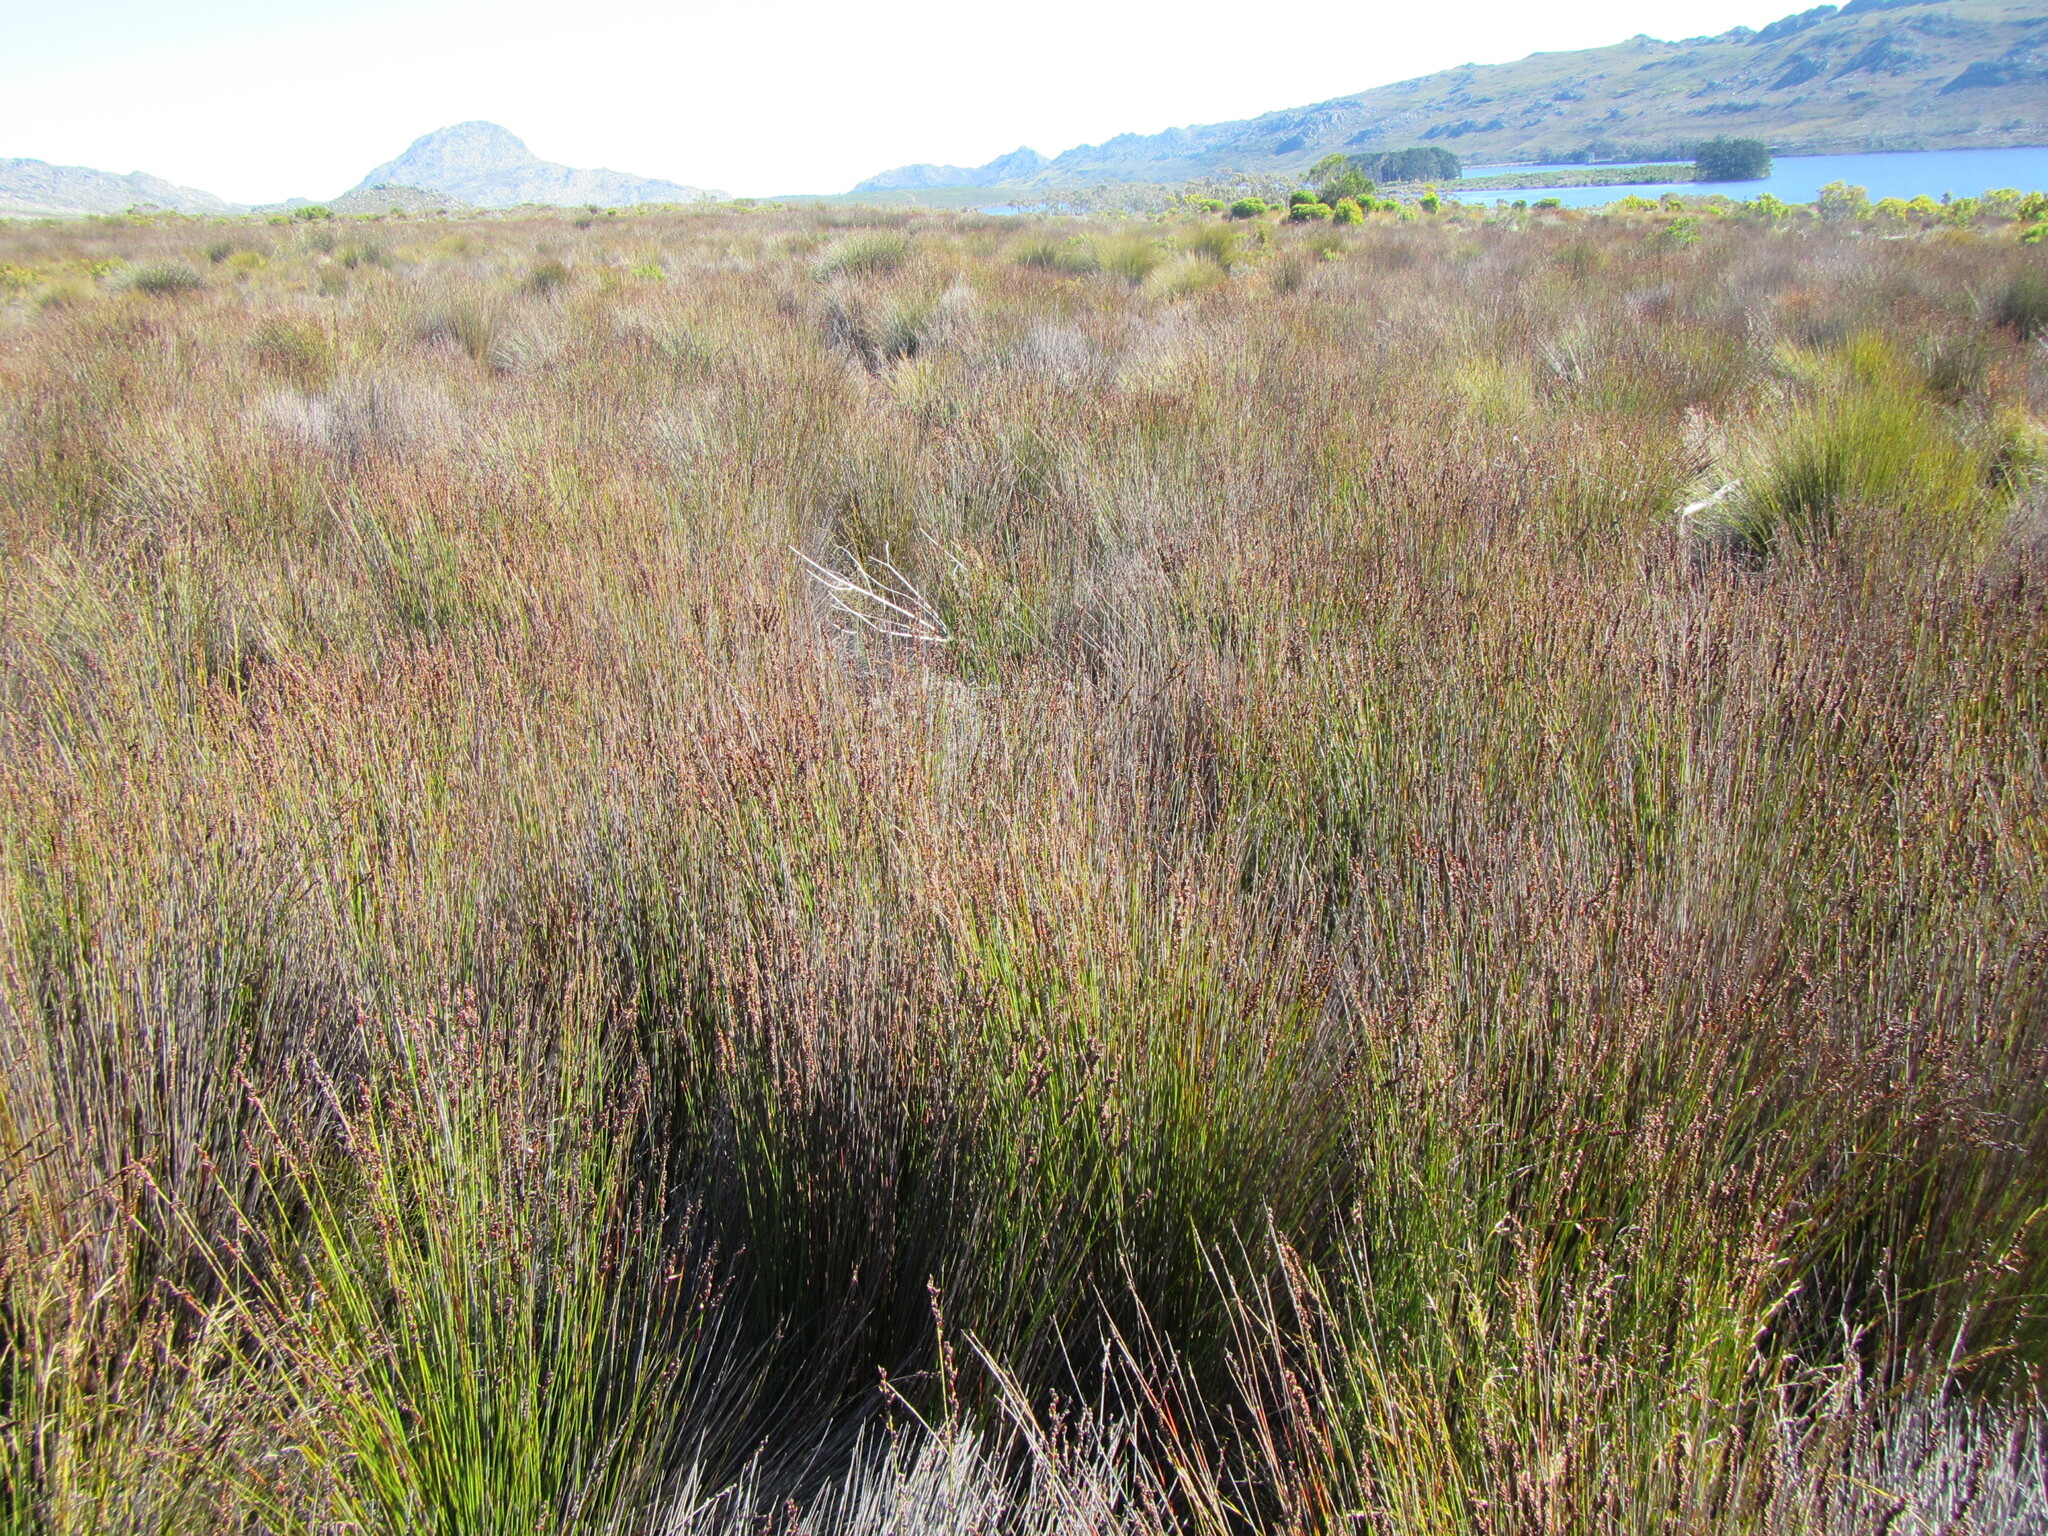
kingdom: Plantae
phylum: Tracheophyta
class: Liliopsida
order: Poales
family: Restionaceae
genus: Elegia
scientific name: Elegia hookeriana
